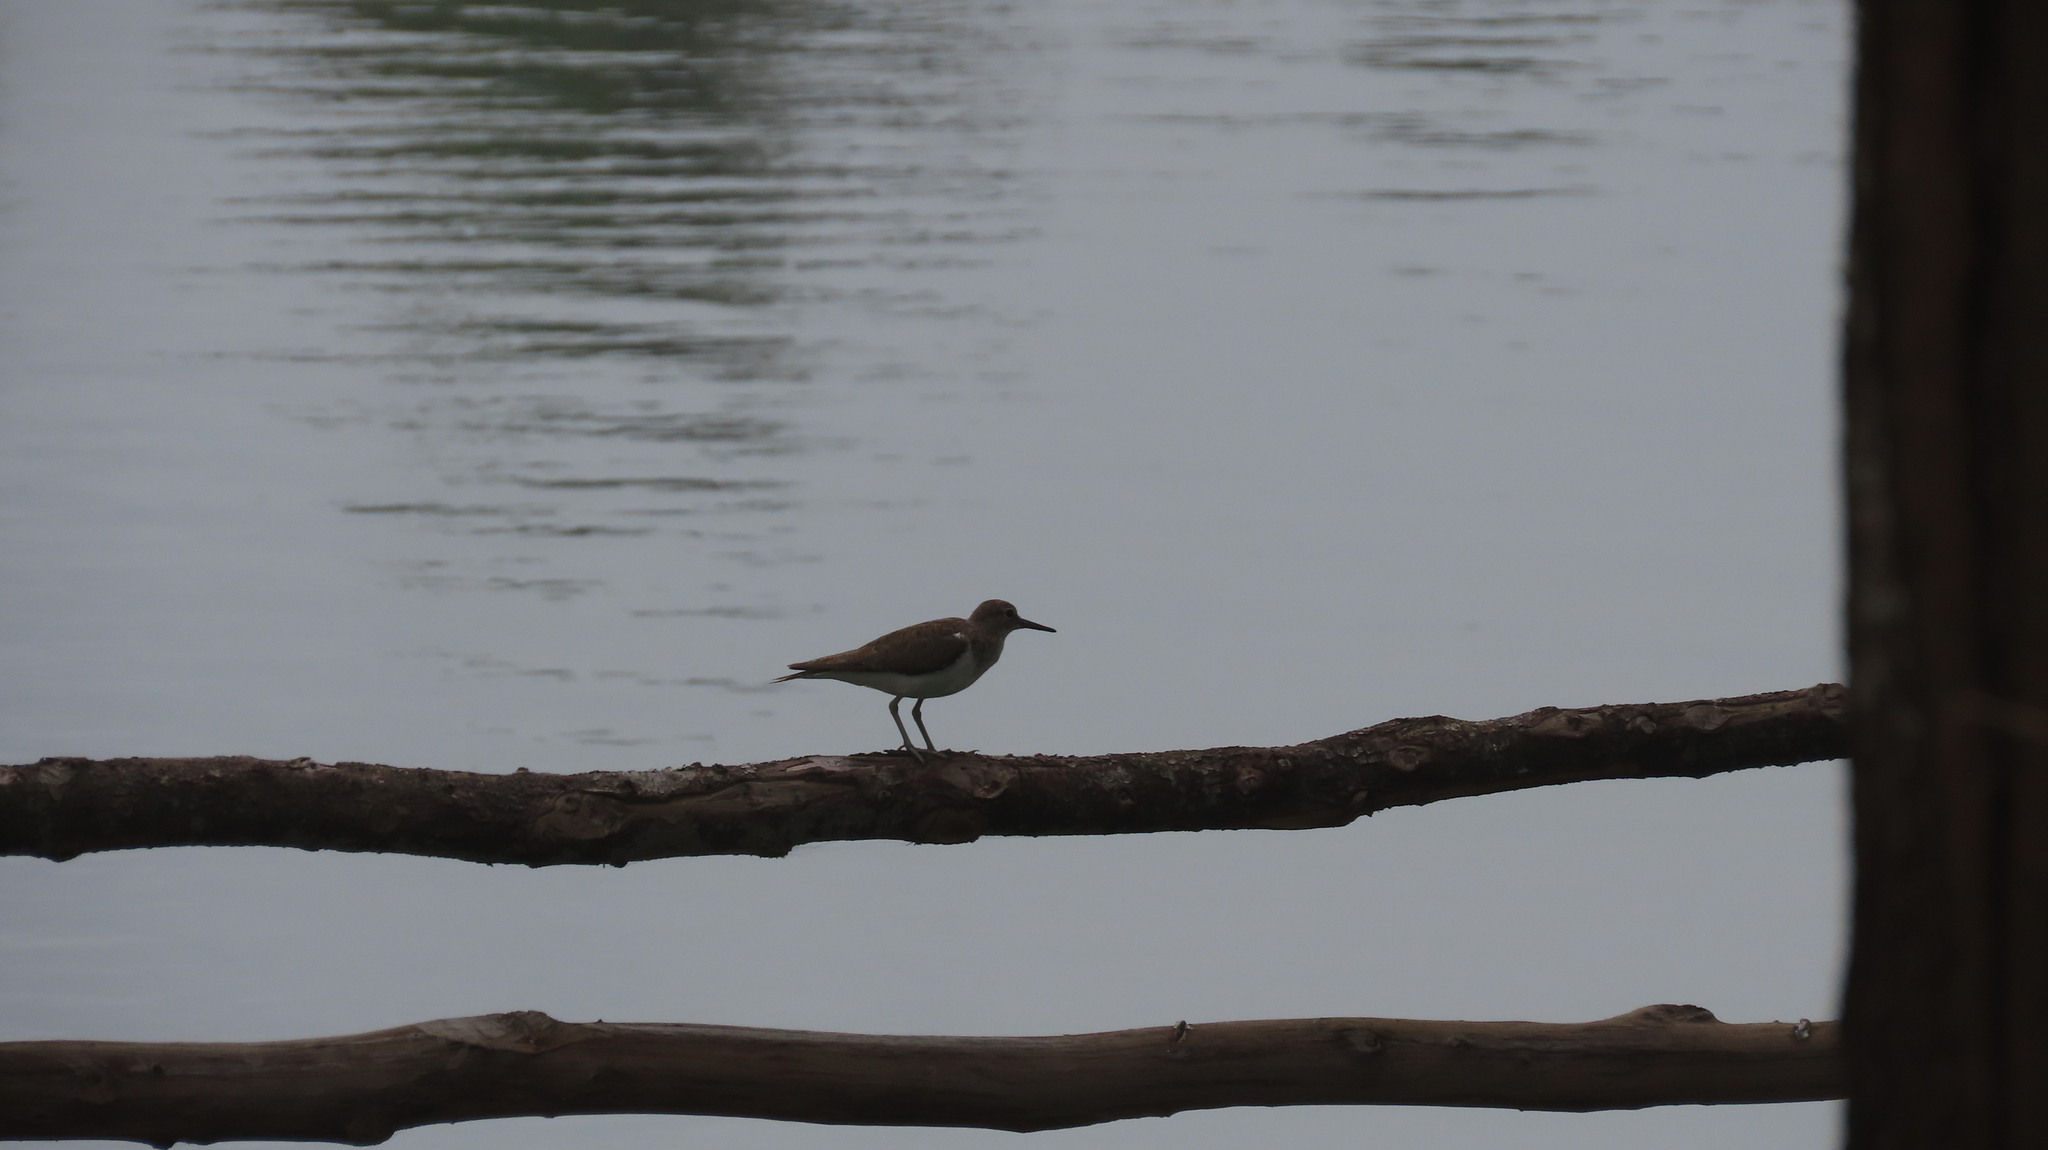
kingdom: Animalia
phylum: Chordata
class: Aves
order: Charadriiformes
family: Scolopacidae
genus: Actitis
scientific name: Actitis hypoleucos
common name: Common sandpiper
